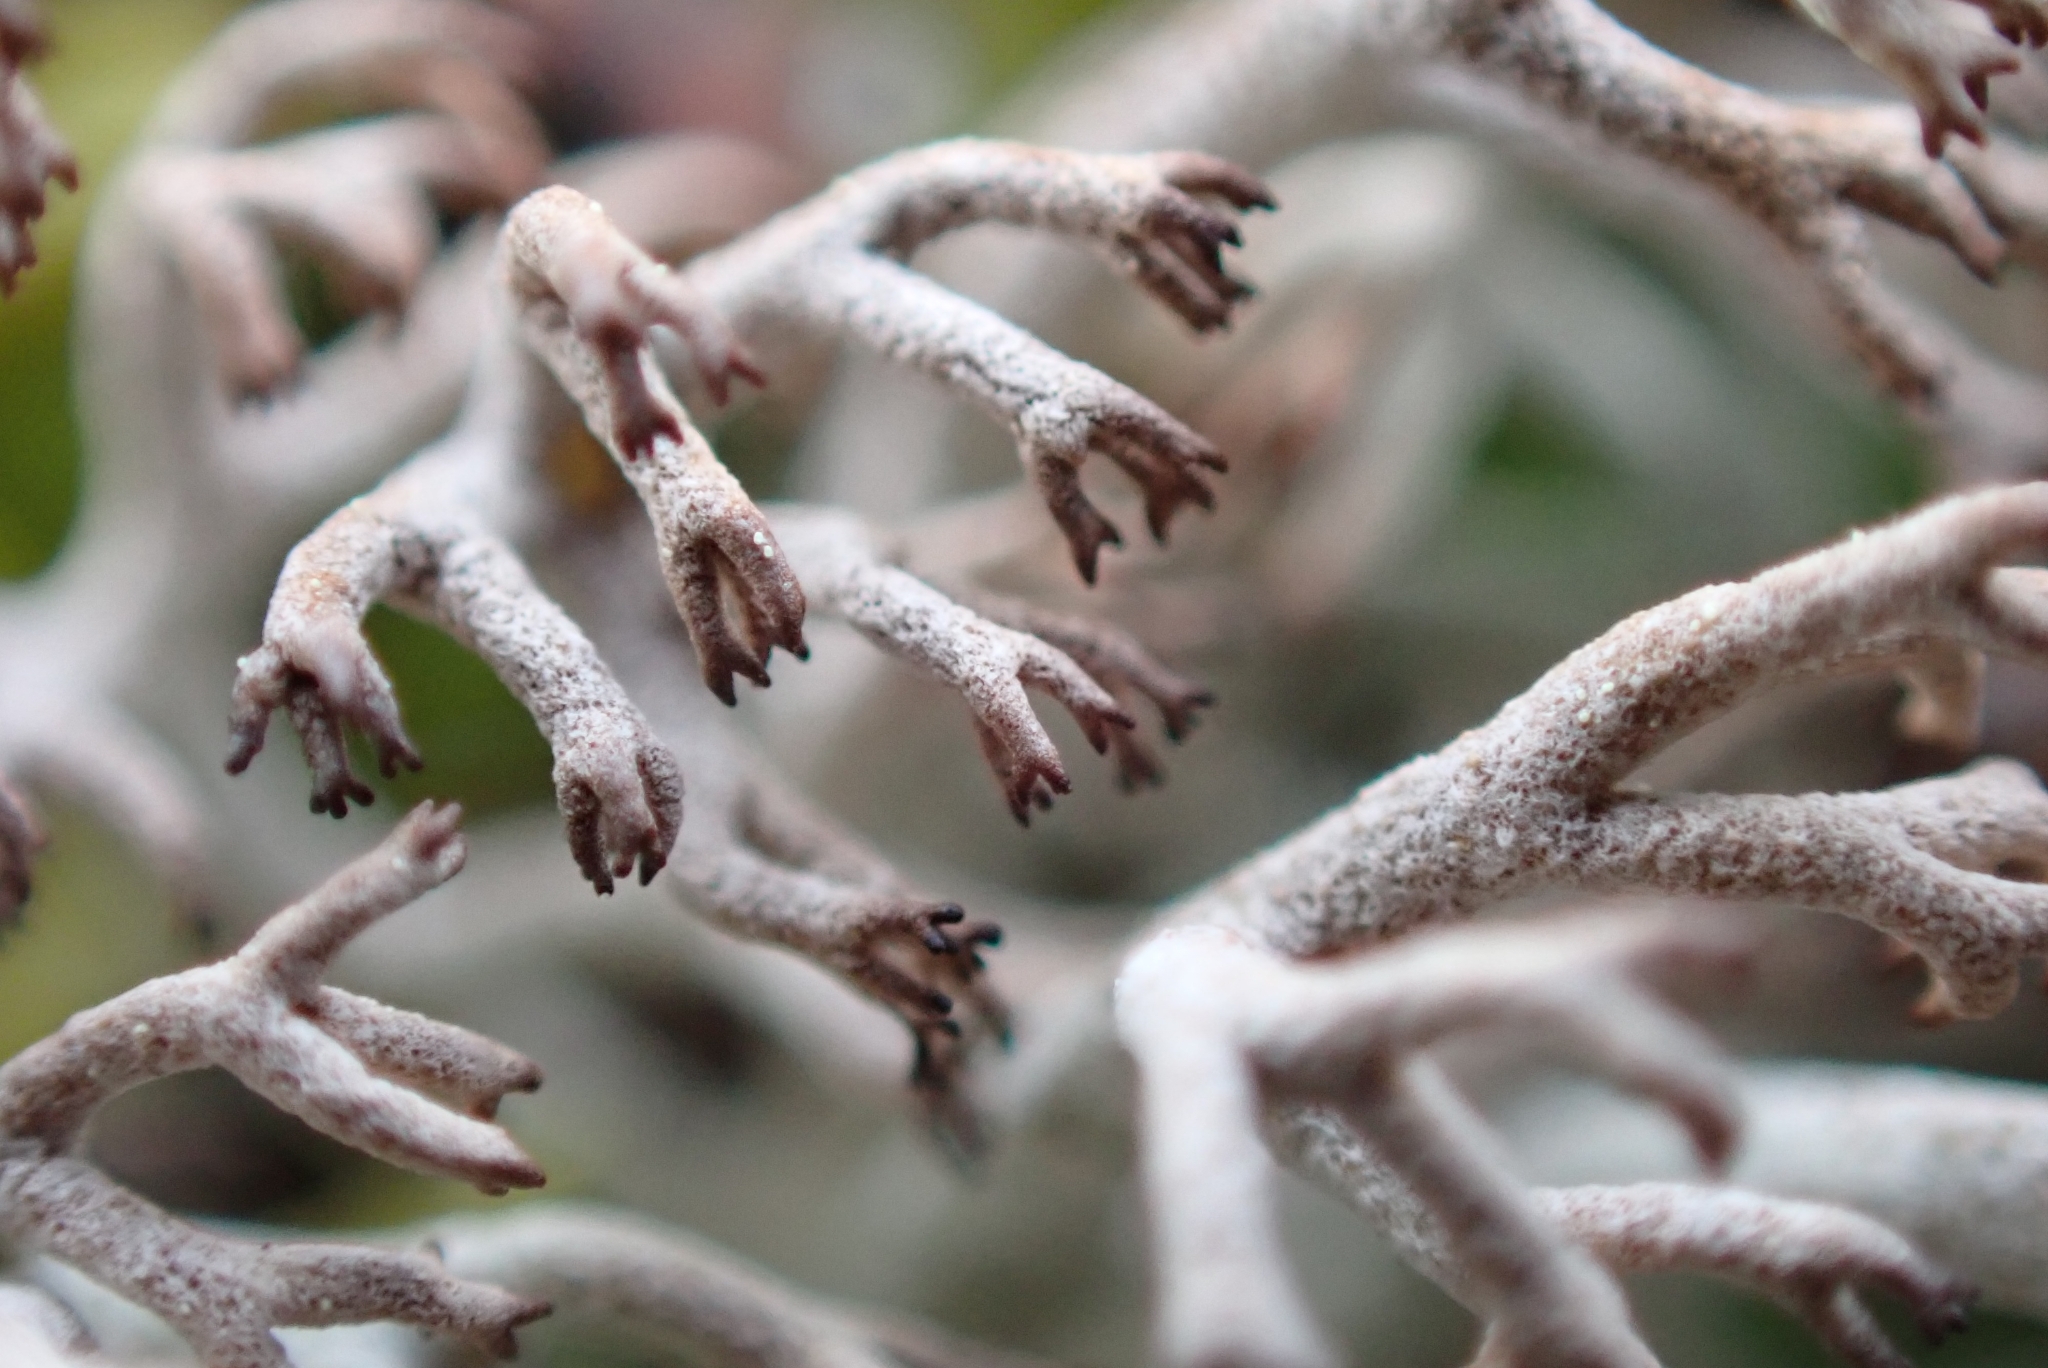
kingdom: Fungi
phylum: Ascomycota
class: Lecanoromycetes
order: Lecanorales
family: Cladoniaceae
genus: Cladonia
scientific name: Cladonia rangiferina
